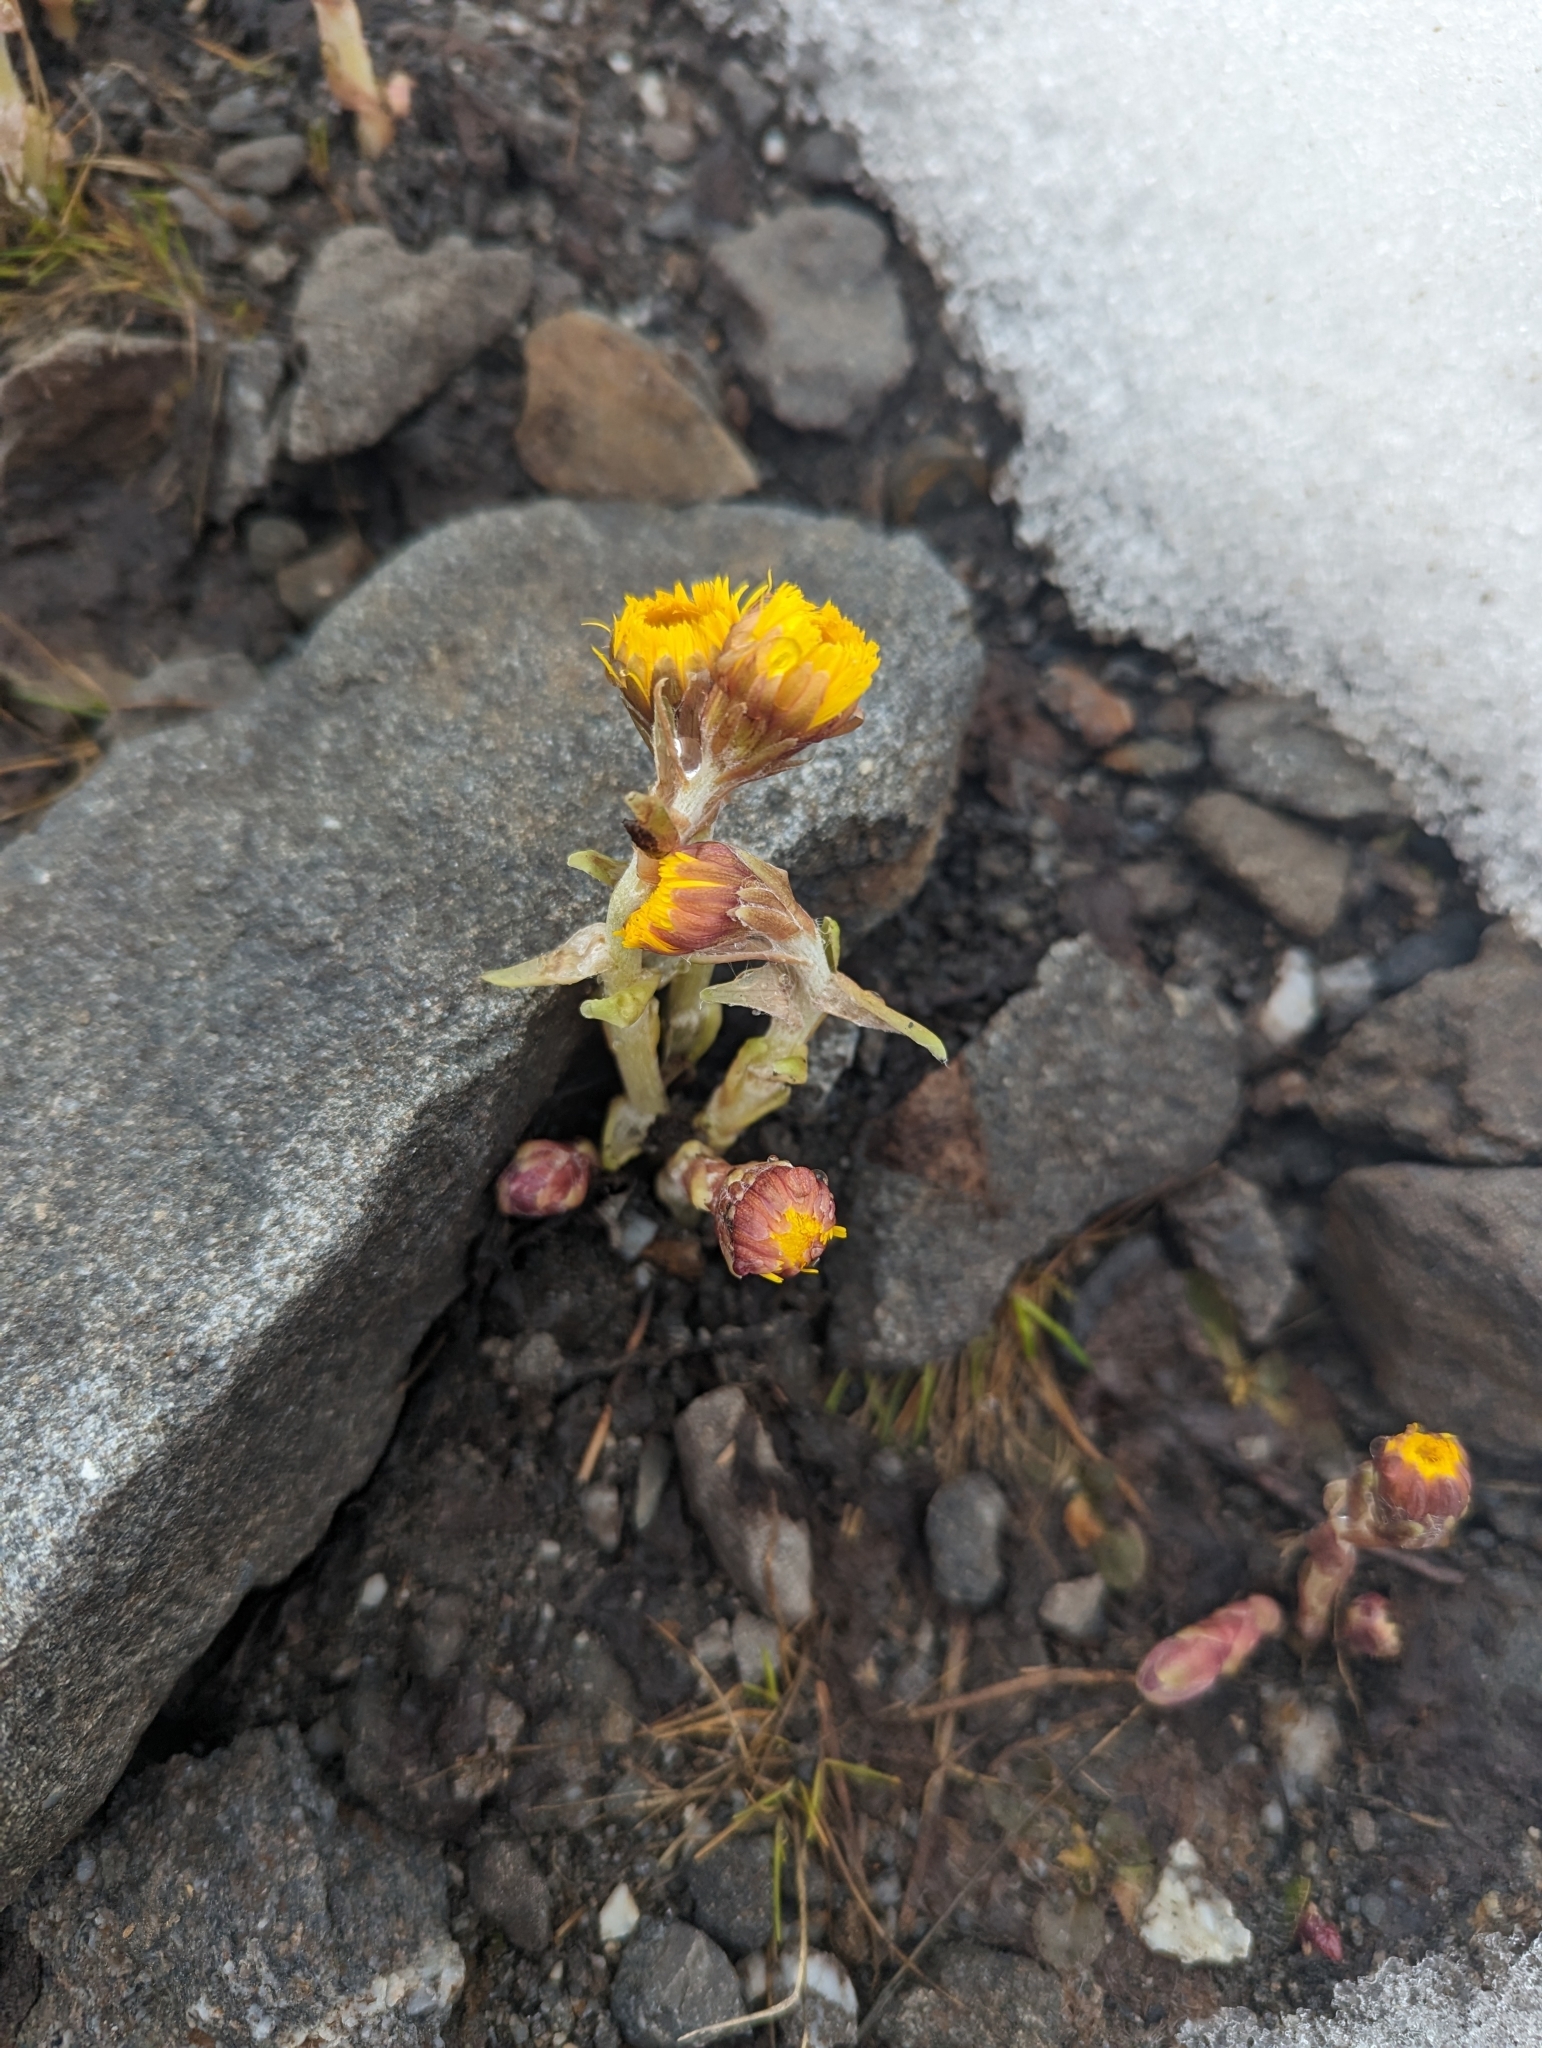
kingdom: Plantae
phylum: Tracheophyta
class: Magnoliopsida
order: Asterales
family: Asteraceae
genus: Tussilago
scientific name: Tussilago farfara
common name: Coltsfoot
